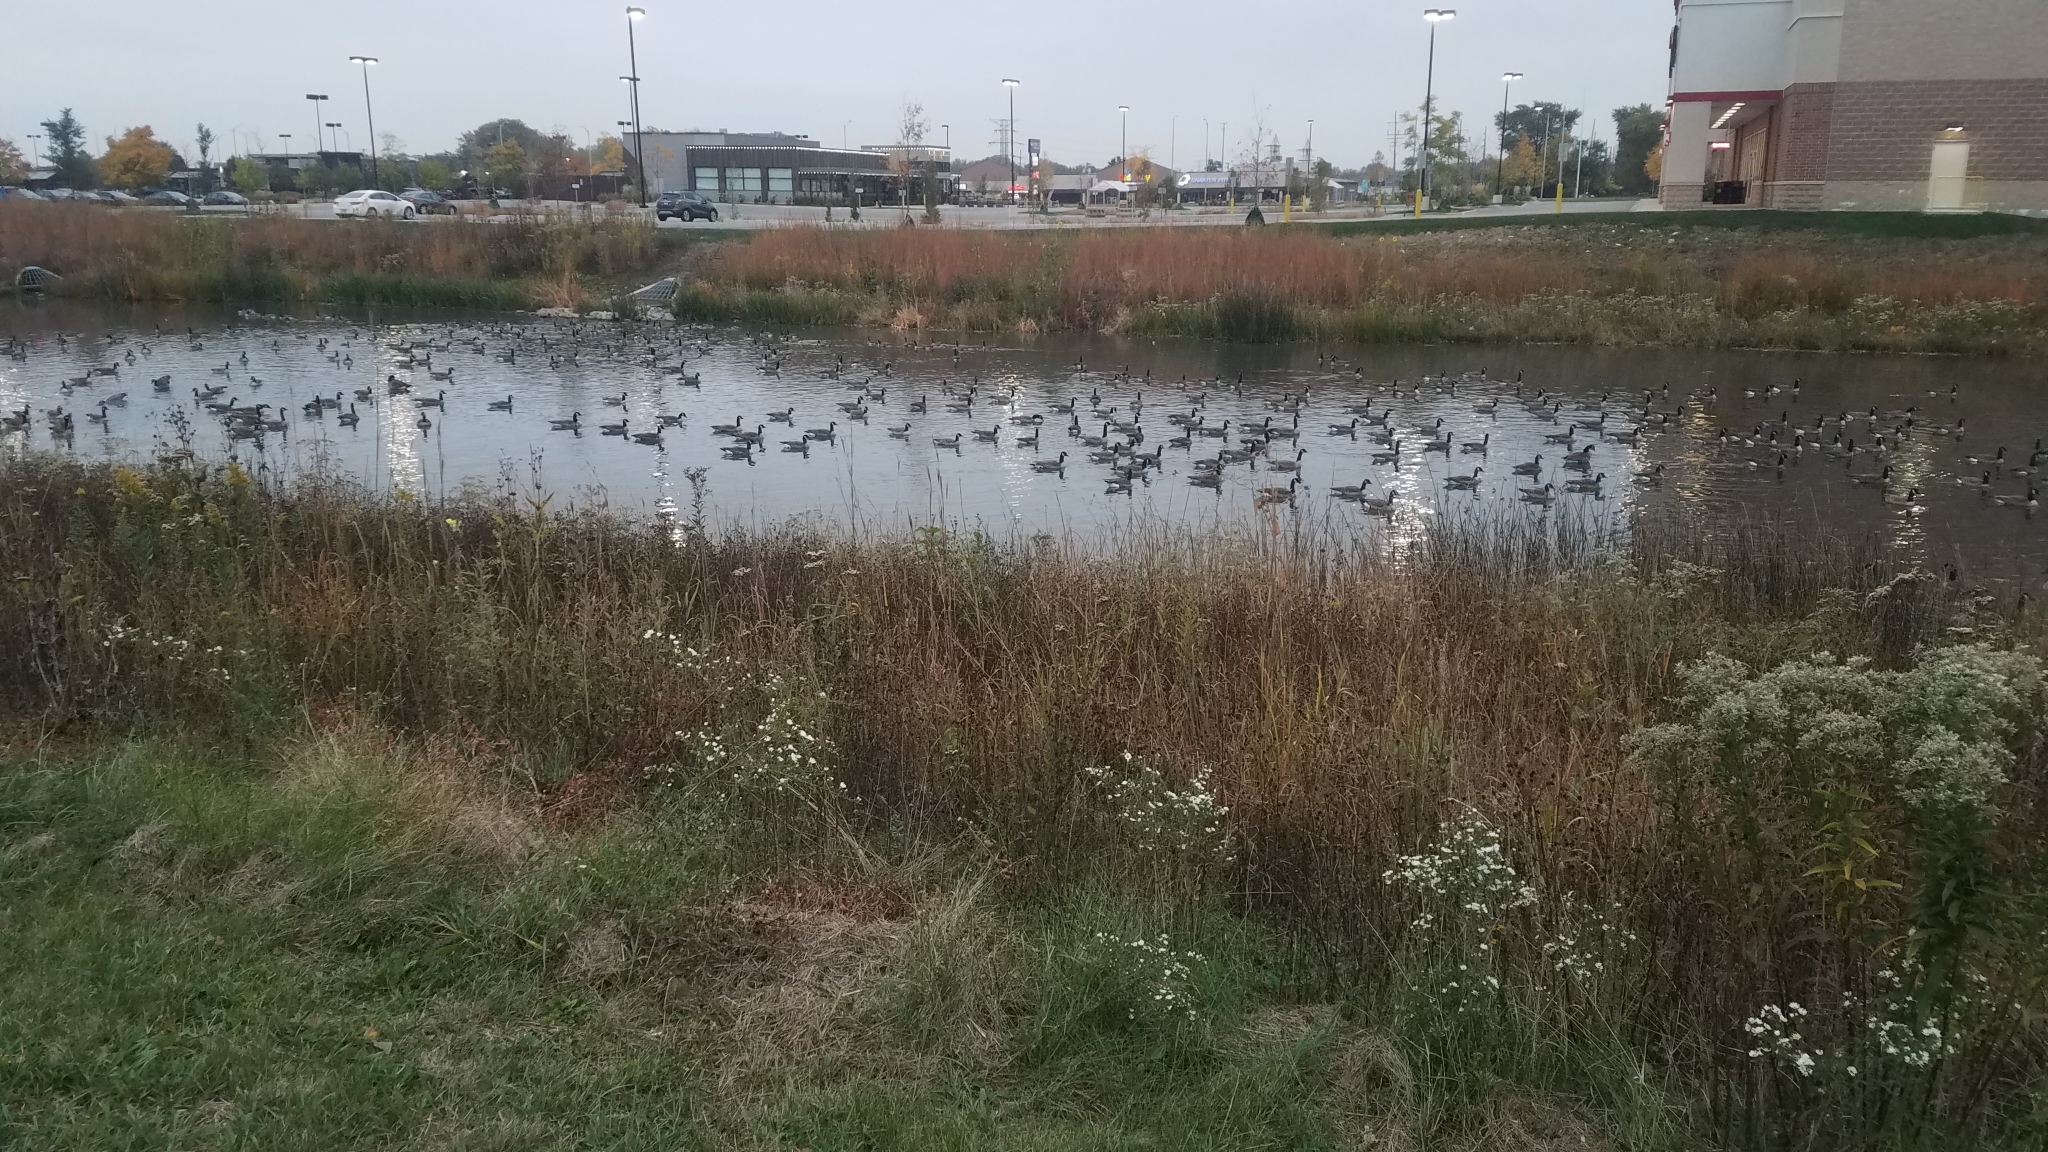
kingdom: Animalia
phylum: Chordata
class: Aves
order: Anseriformes
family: Anatidae
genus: Branta
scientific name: Branta canadensis
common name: Canada goose
